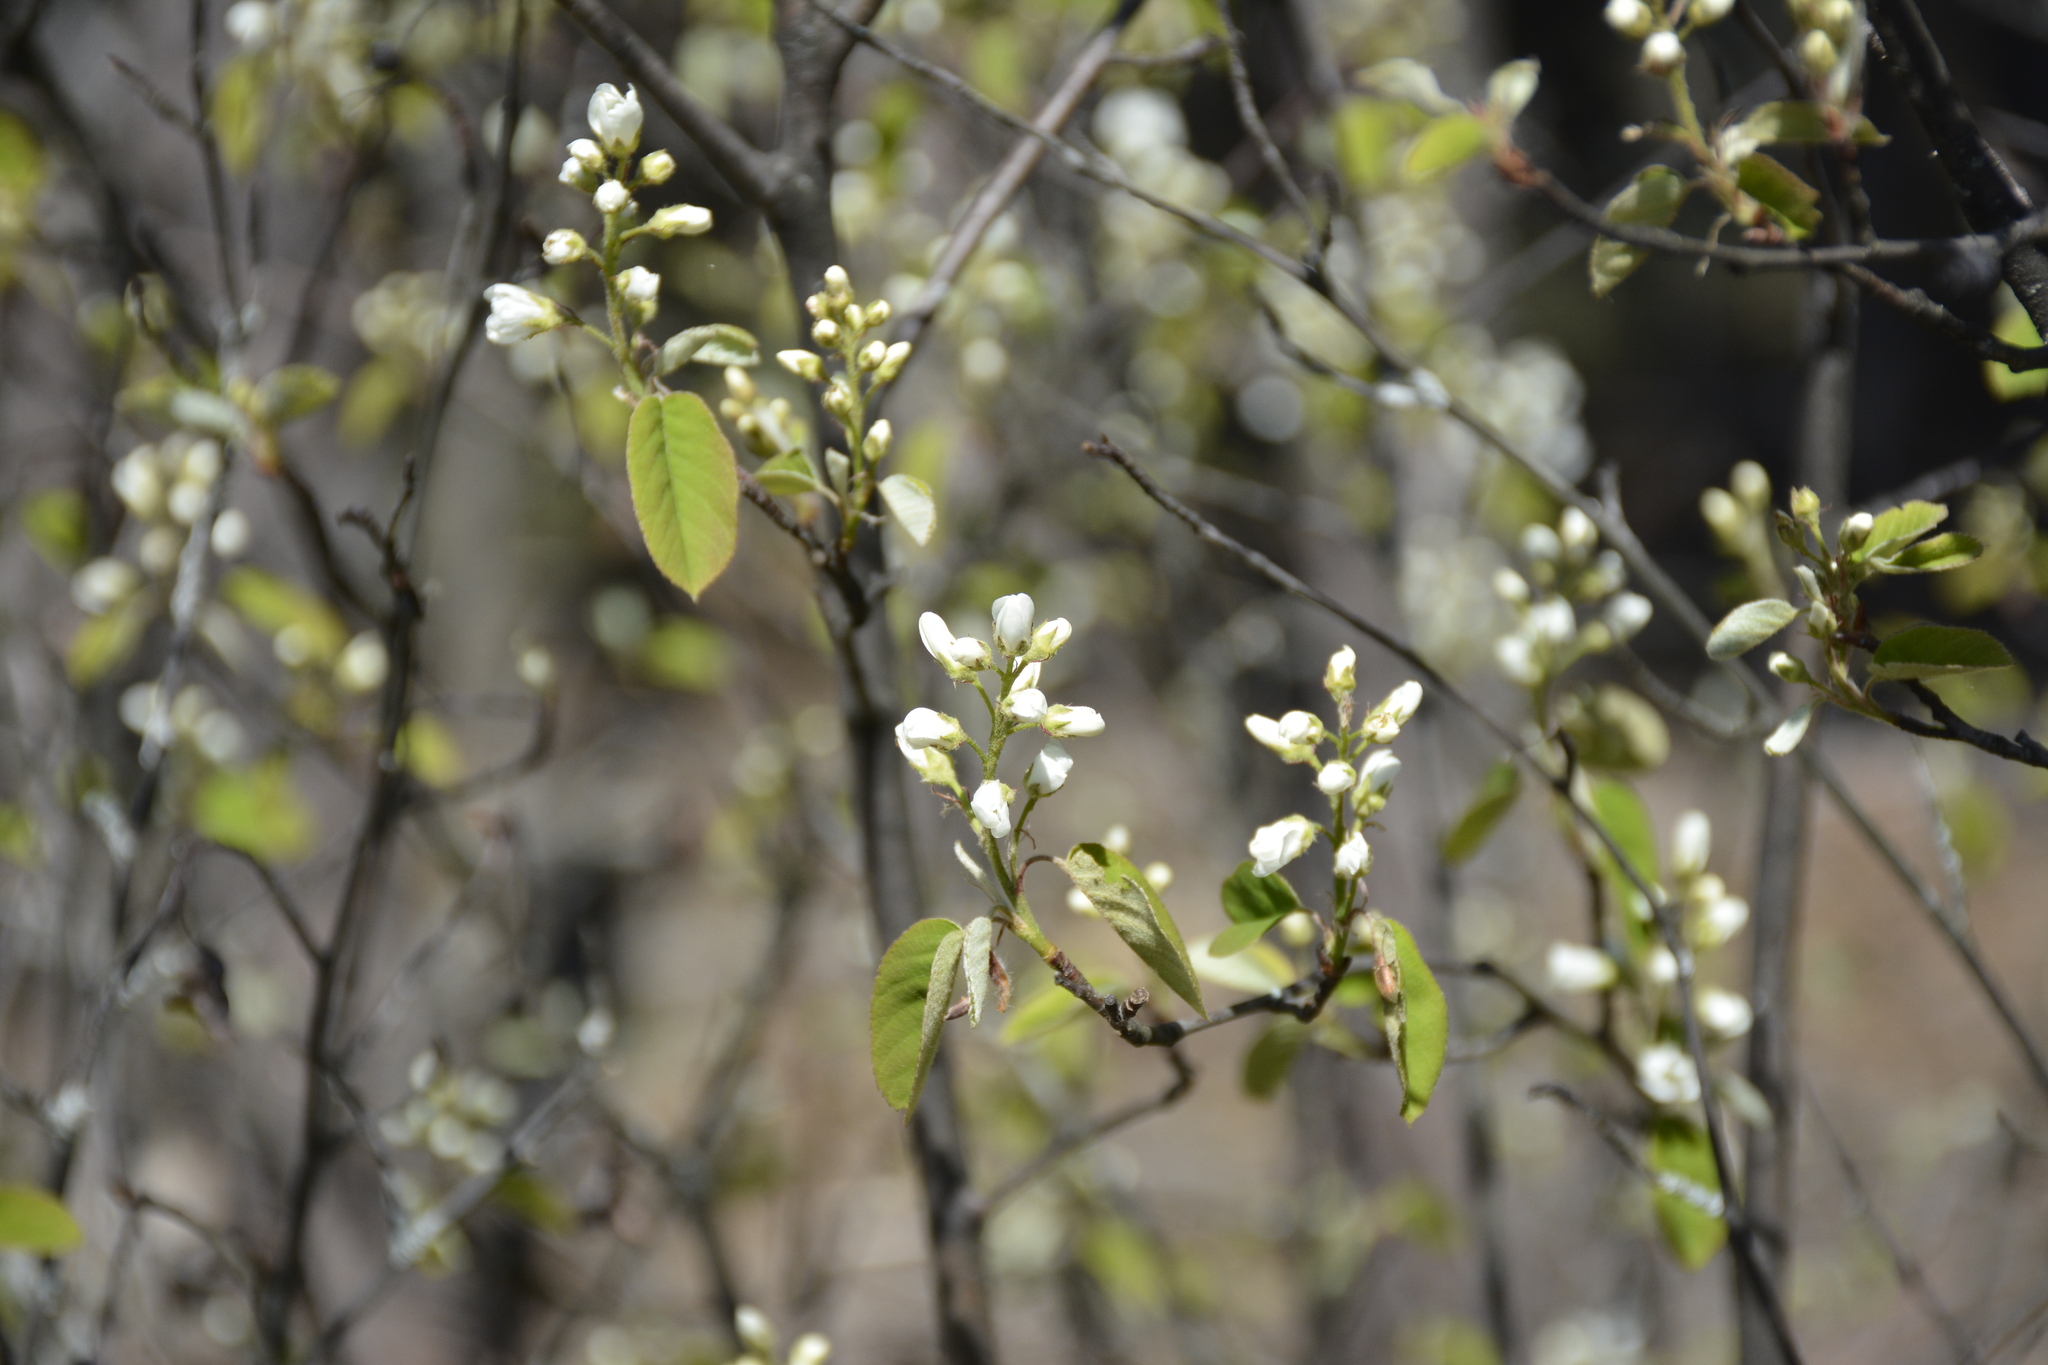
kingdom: Plantae
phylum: Tracheophyta
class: Magnoliopsida
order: Rosales
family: Rosaceae
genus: Amelanchier
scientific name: Amelanchier
